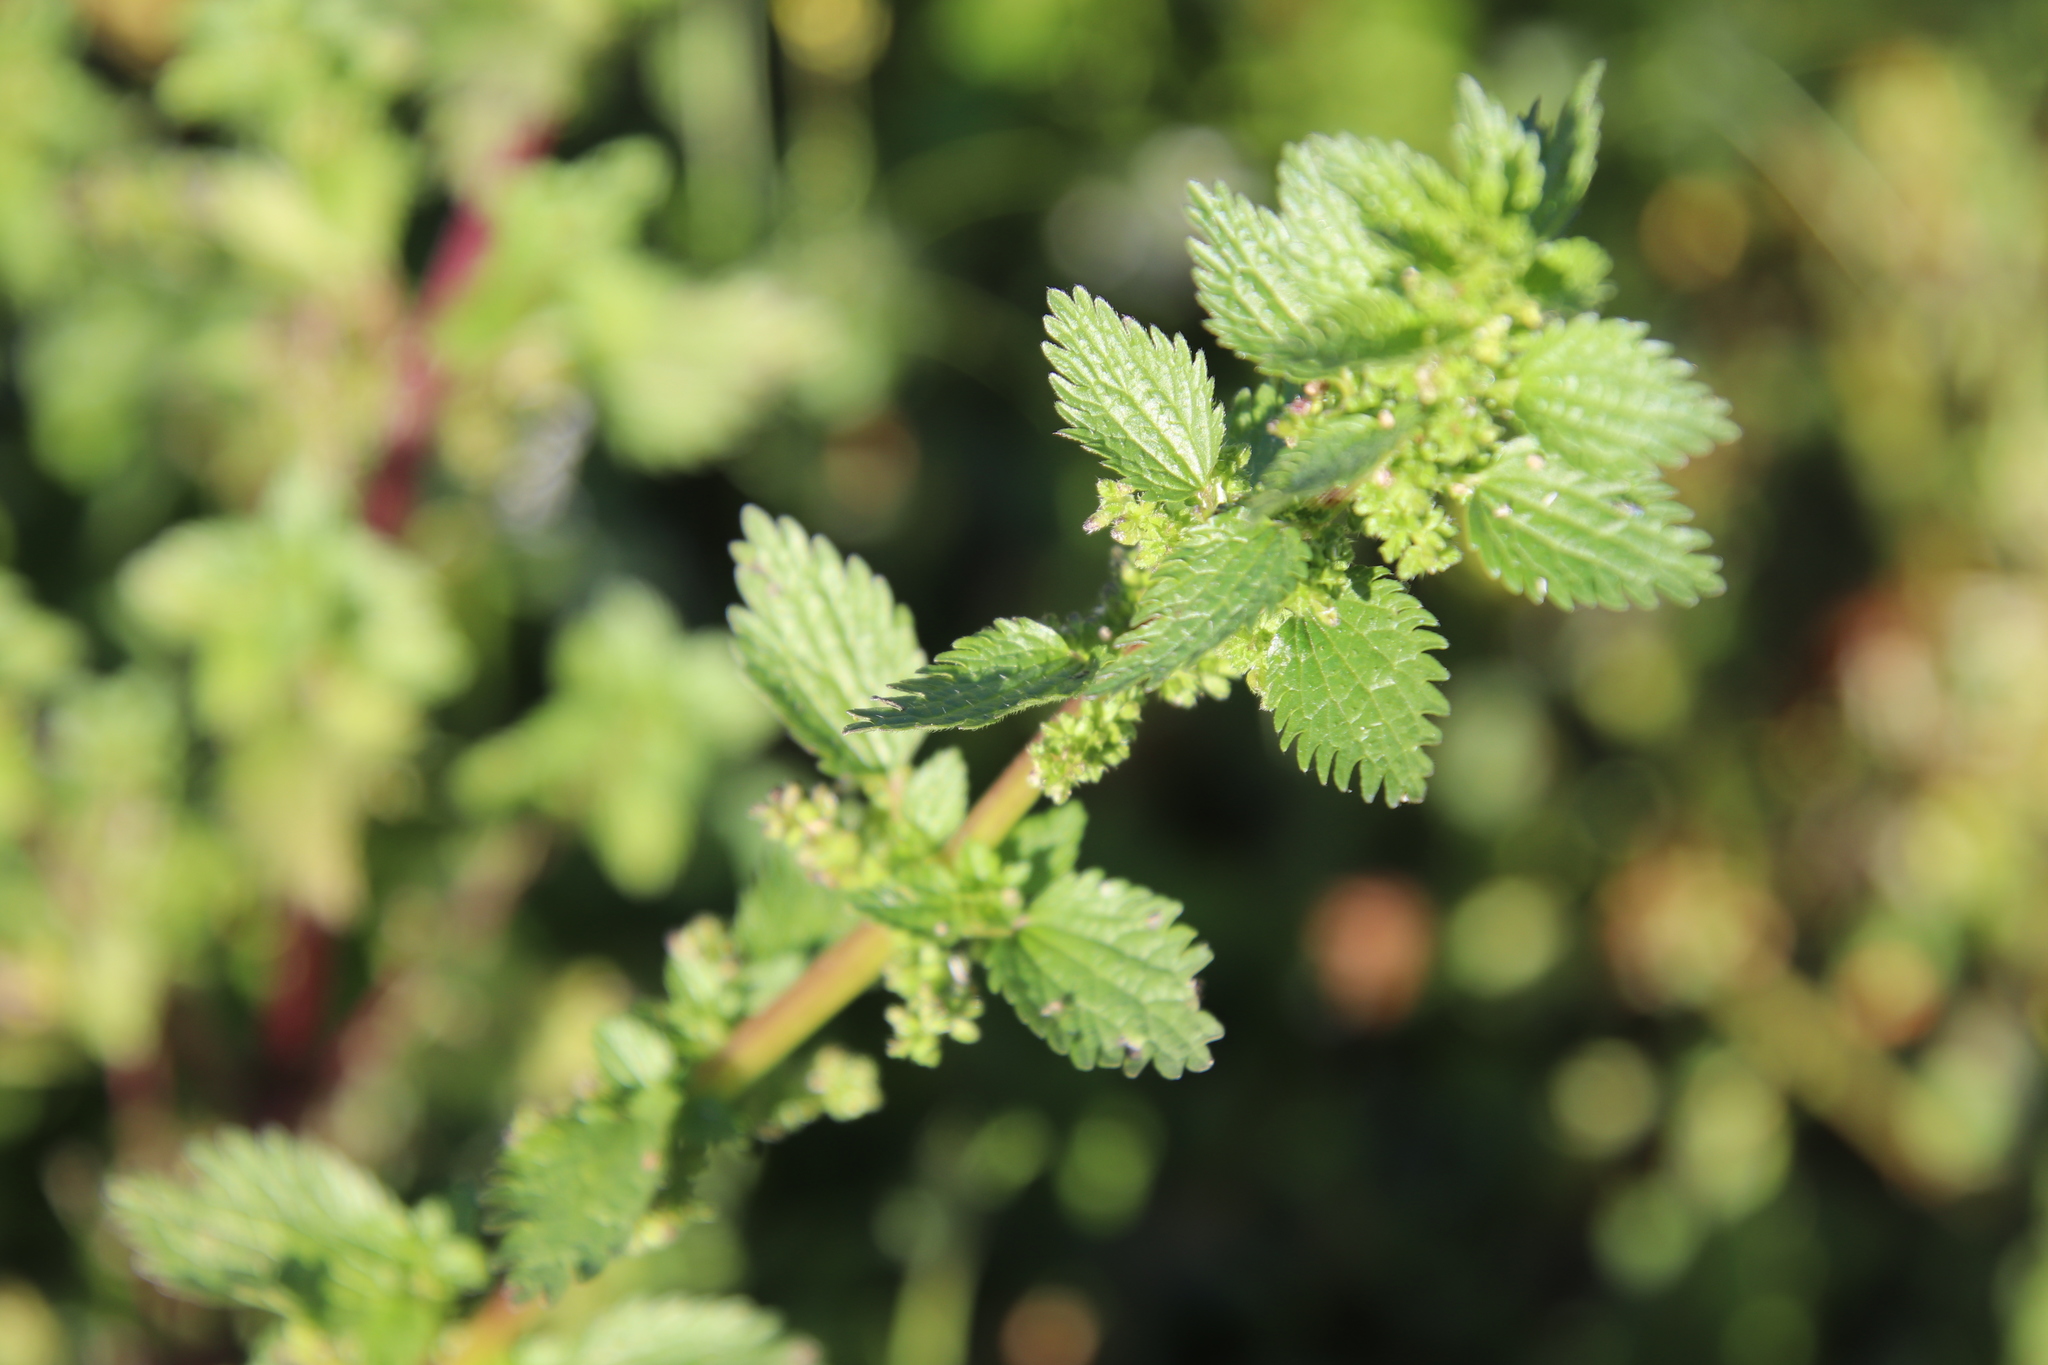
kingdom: Plantae
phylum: Tracheophyta
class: Magnoliopsida
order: Rosales
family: Urticaceae
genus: Urtica
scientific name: Urtica urens
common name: Dwarf nettle
